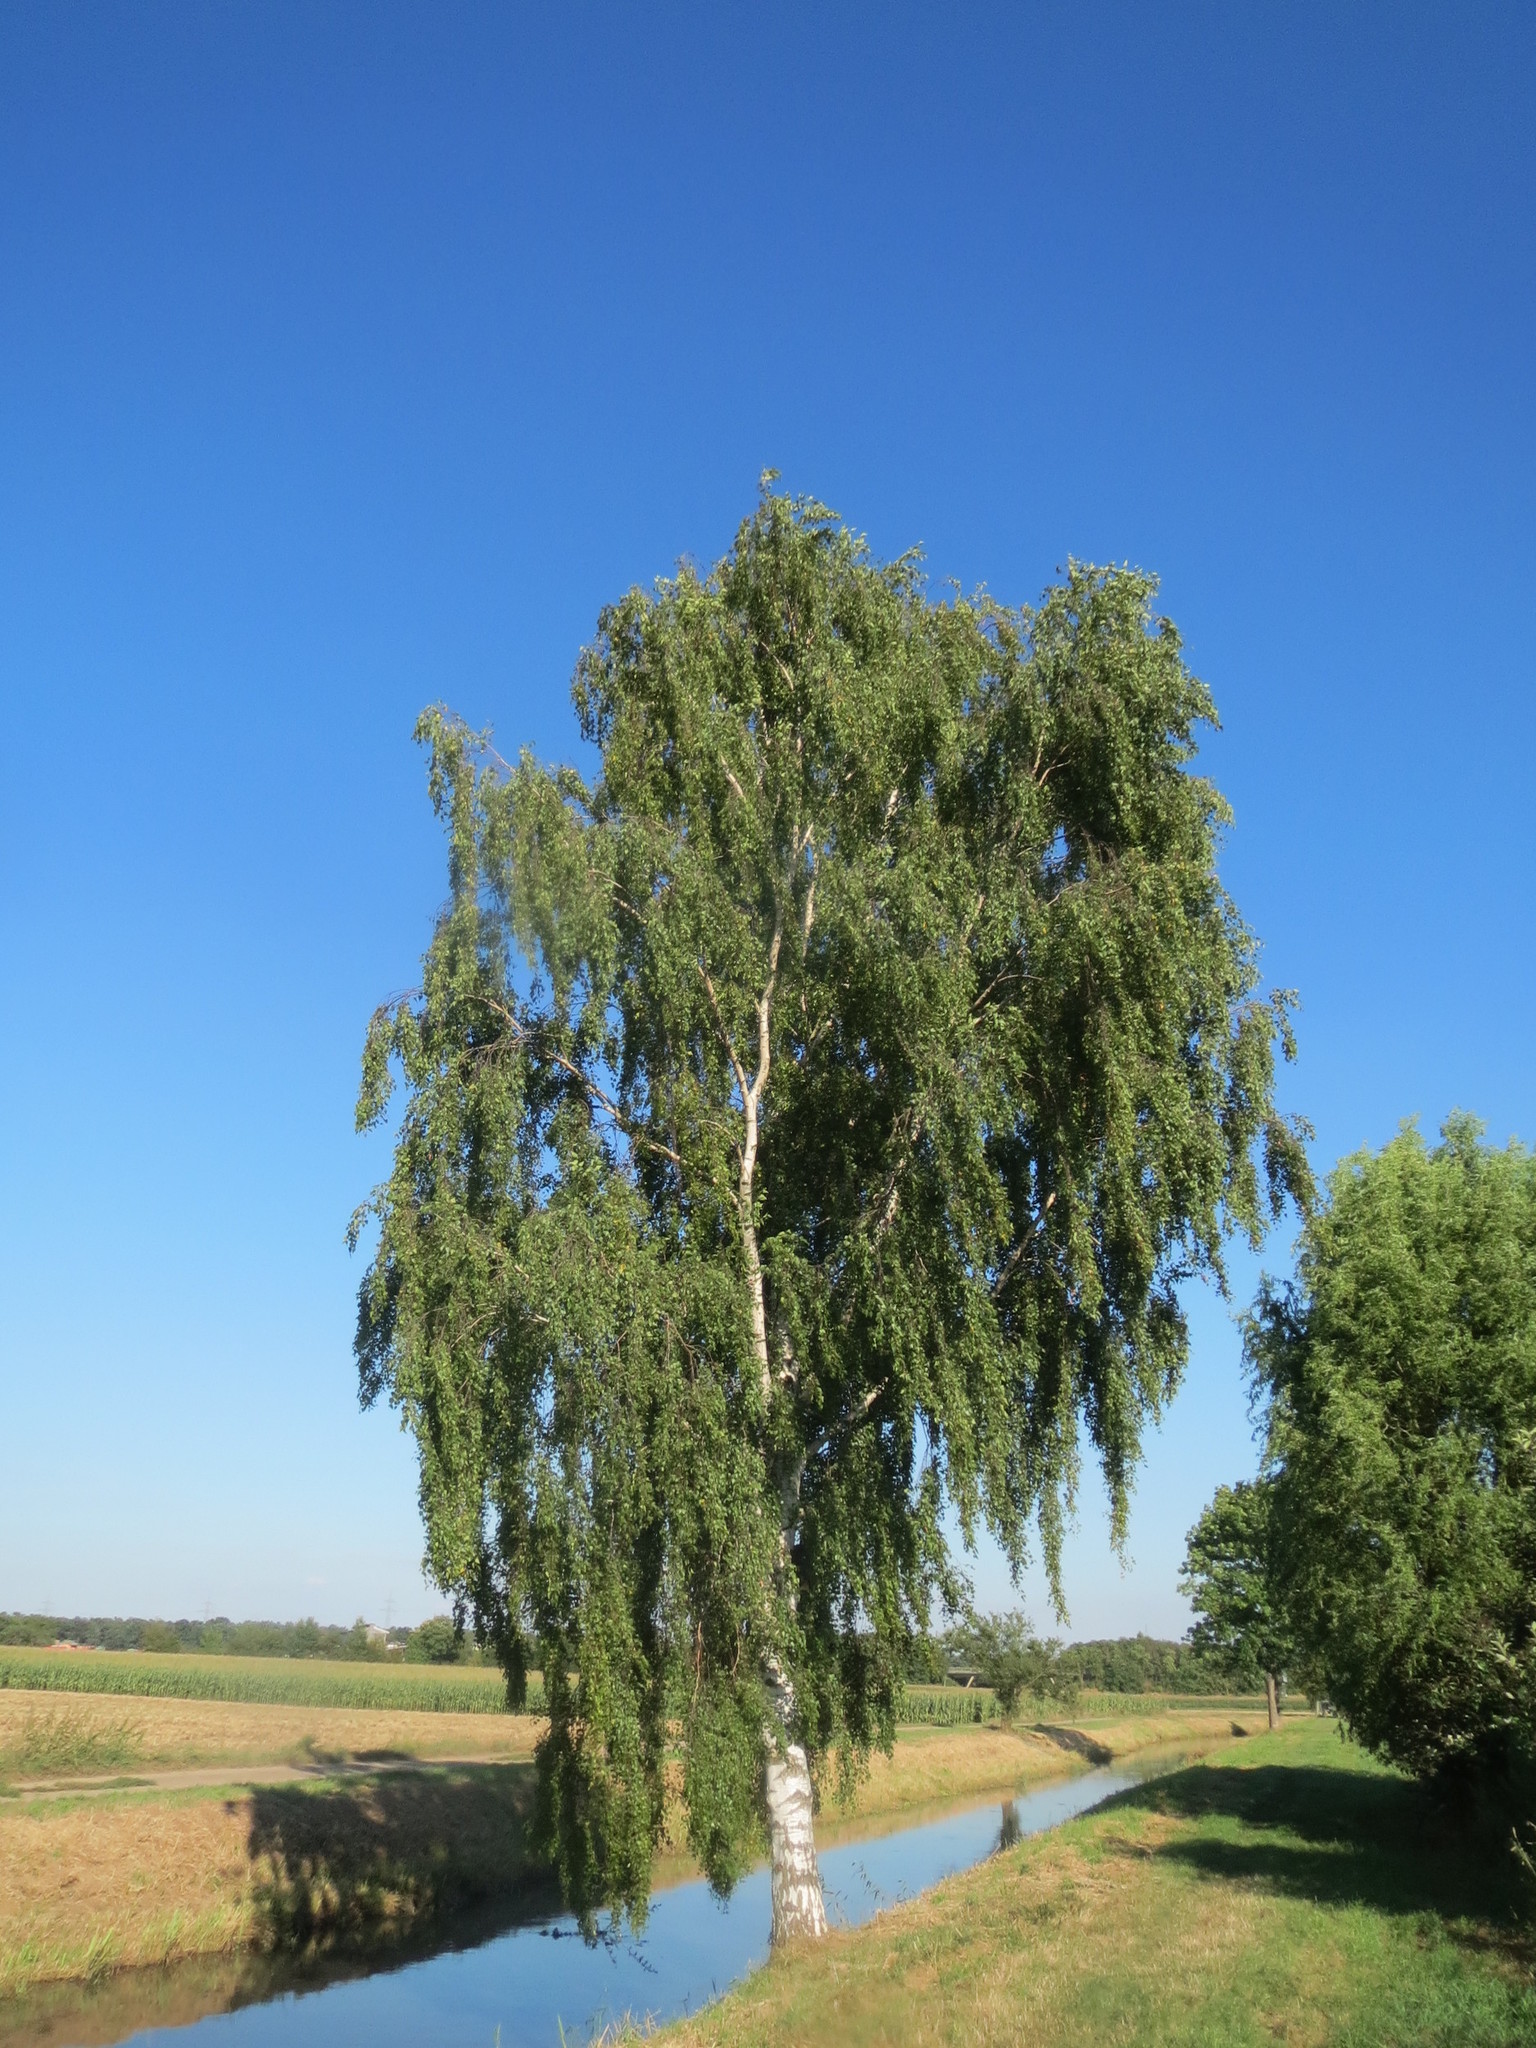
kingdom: Plantae
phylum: Tracheophyta
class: Magnoliopsida
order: Fagales
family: Betulaceae
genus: Betula
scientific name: Betula pendula
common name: Silver birch
